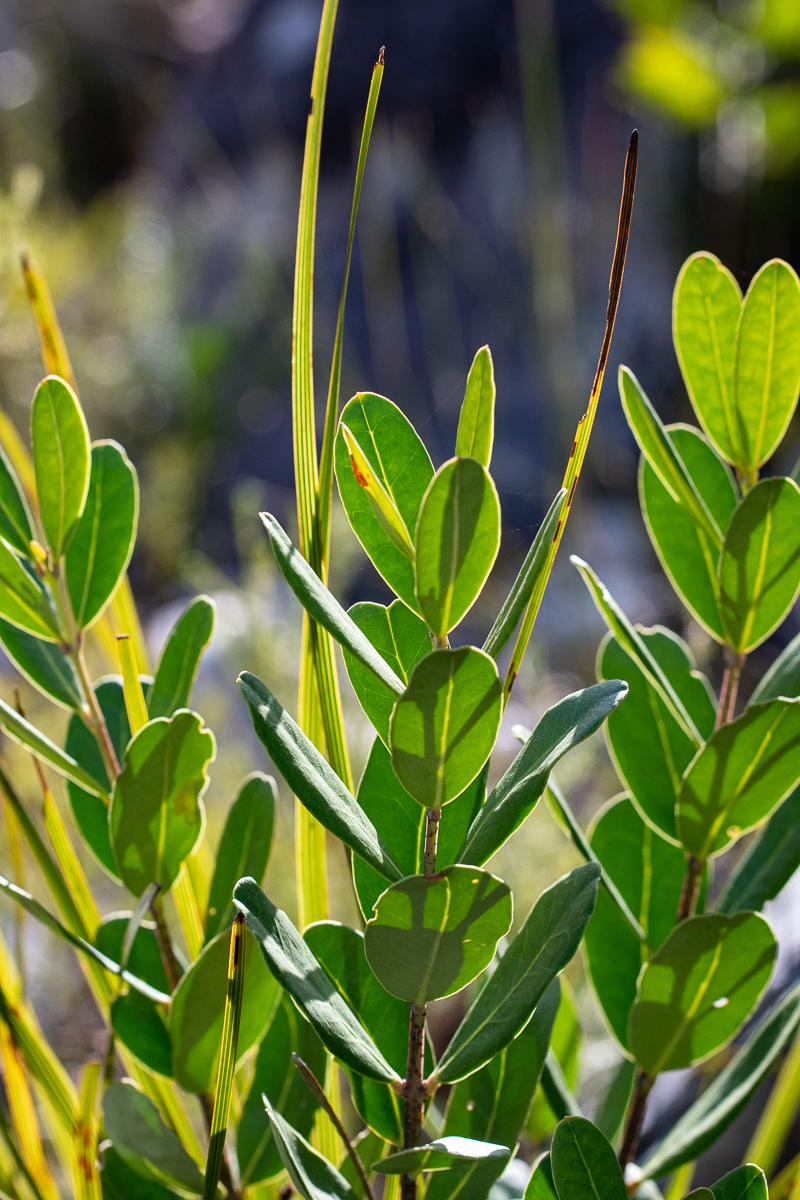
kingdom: Plantae
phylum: Tracheophyta
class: Magnoliopsida
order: Sapindales
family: Anacardiaceae
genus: Laurophyllus
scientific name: Laurophyllus capensis
